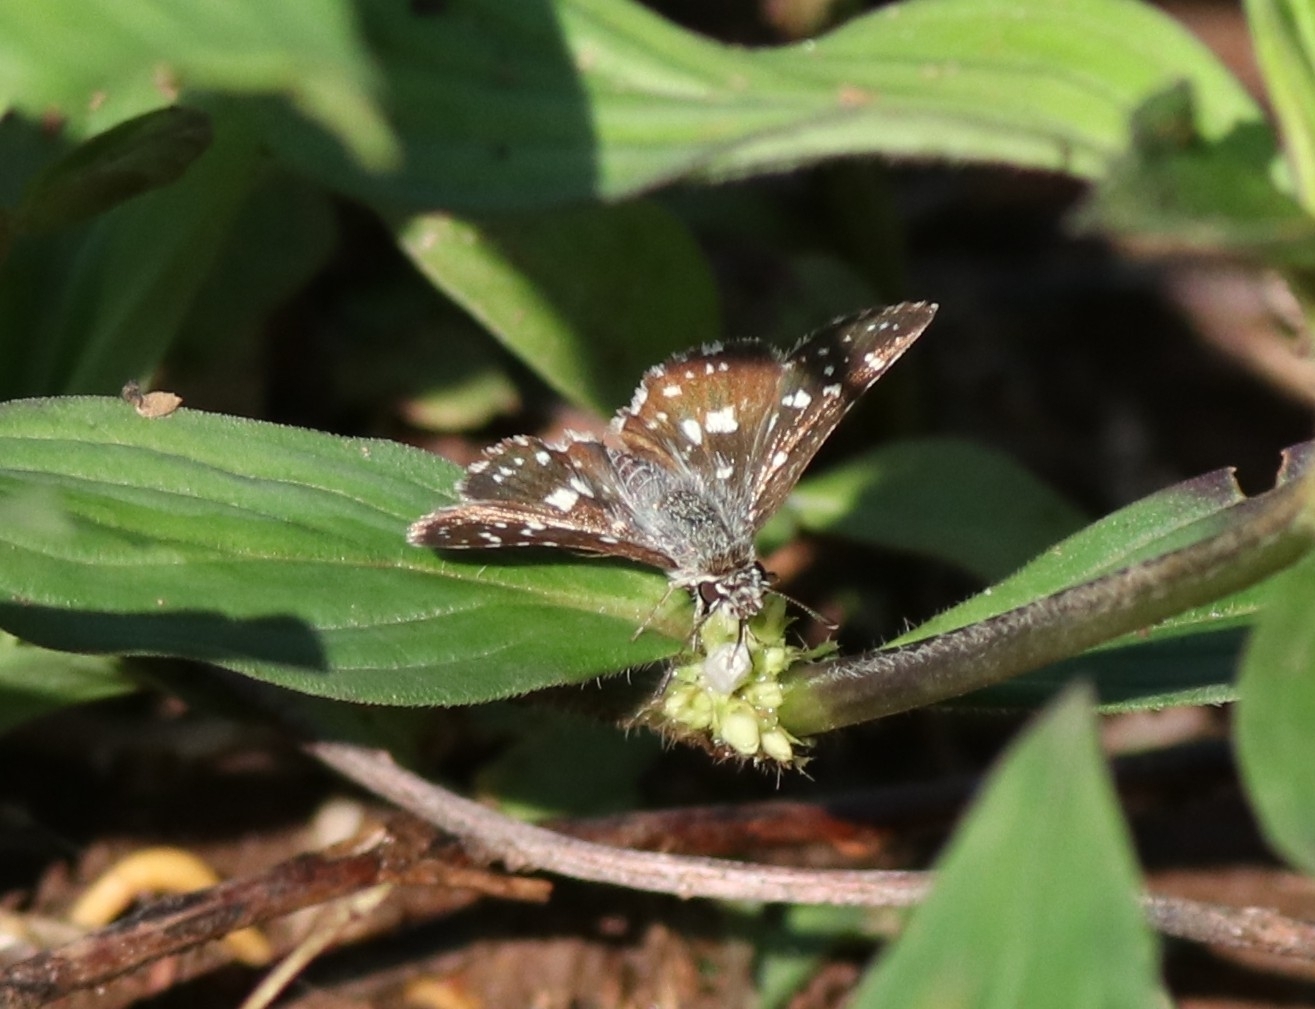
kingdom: Animalia
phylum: Arthropoda
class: Insecta
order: Lepidoptera
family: Hesperiidae
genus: Spialia
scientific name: Spialia galba
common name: Indian skipper
